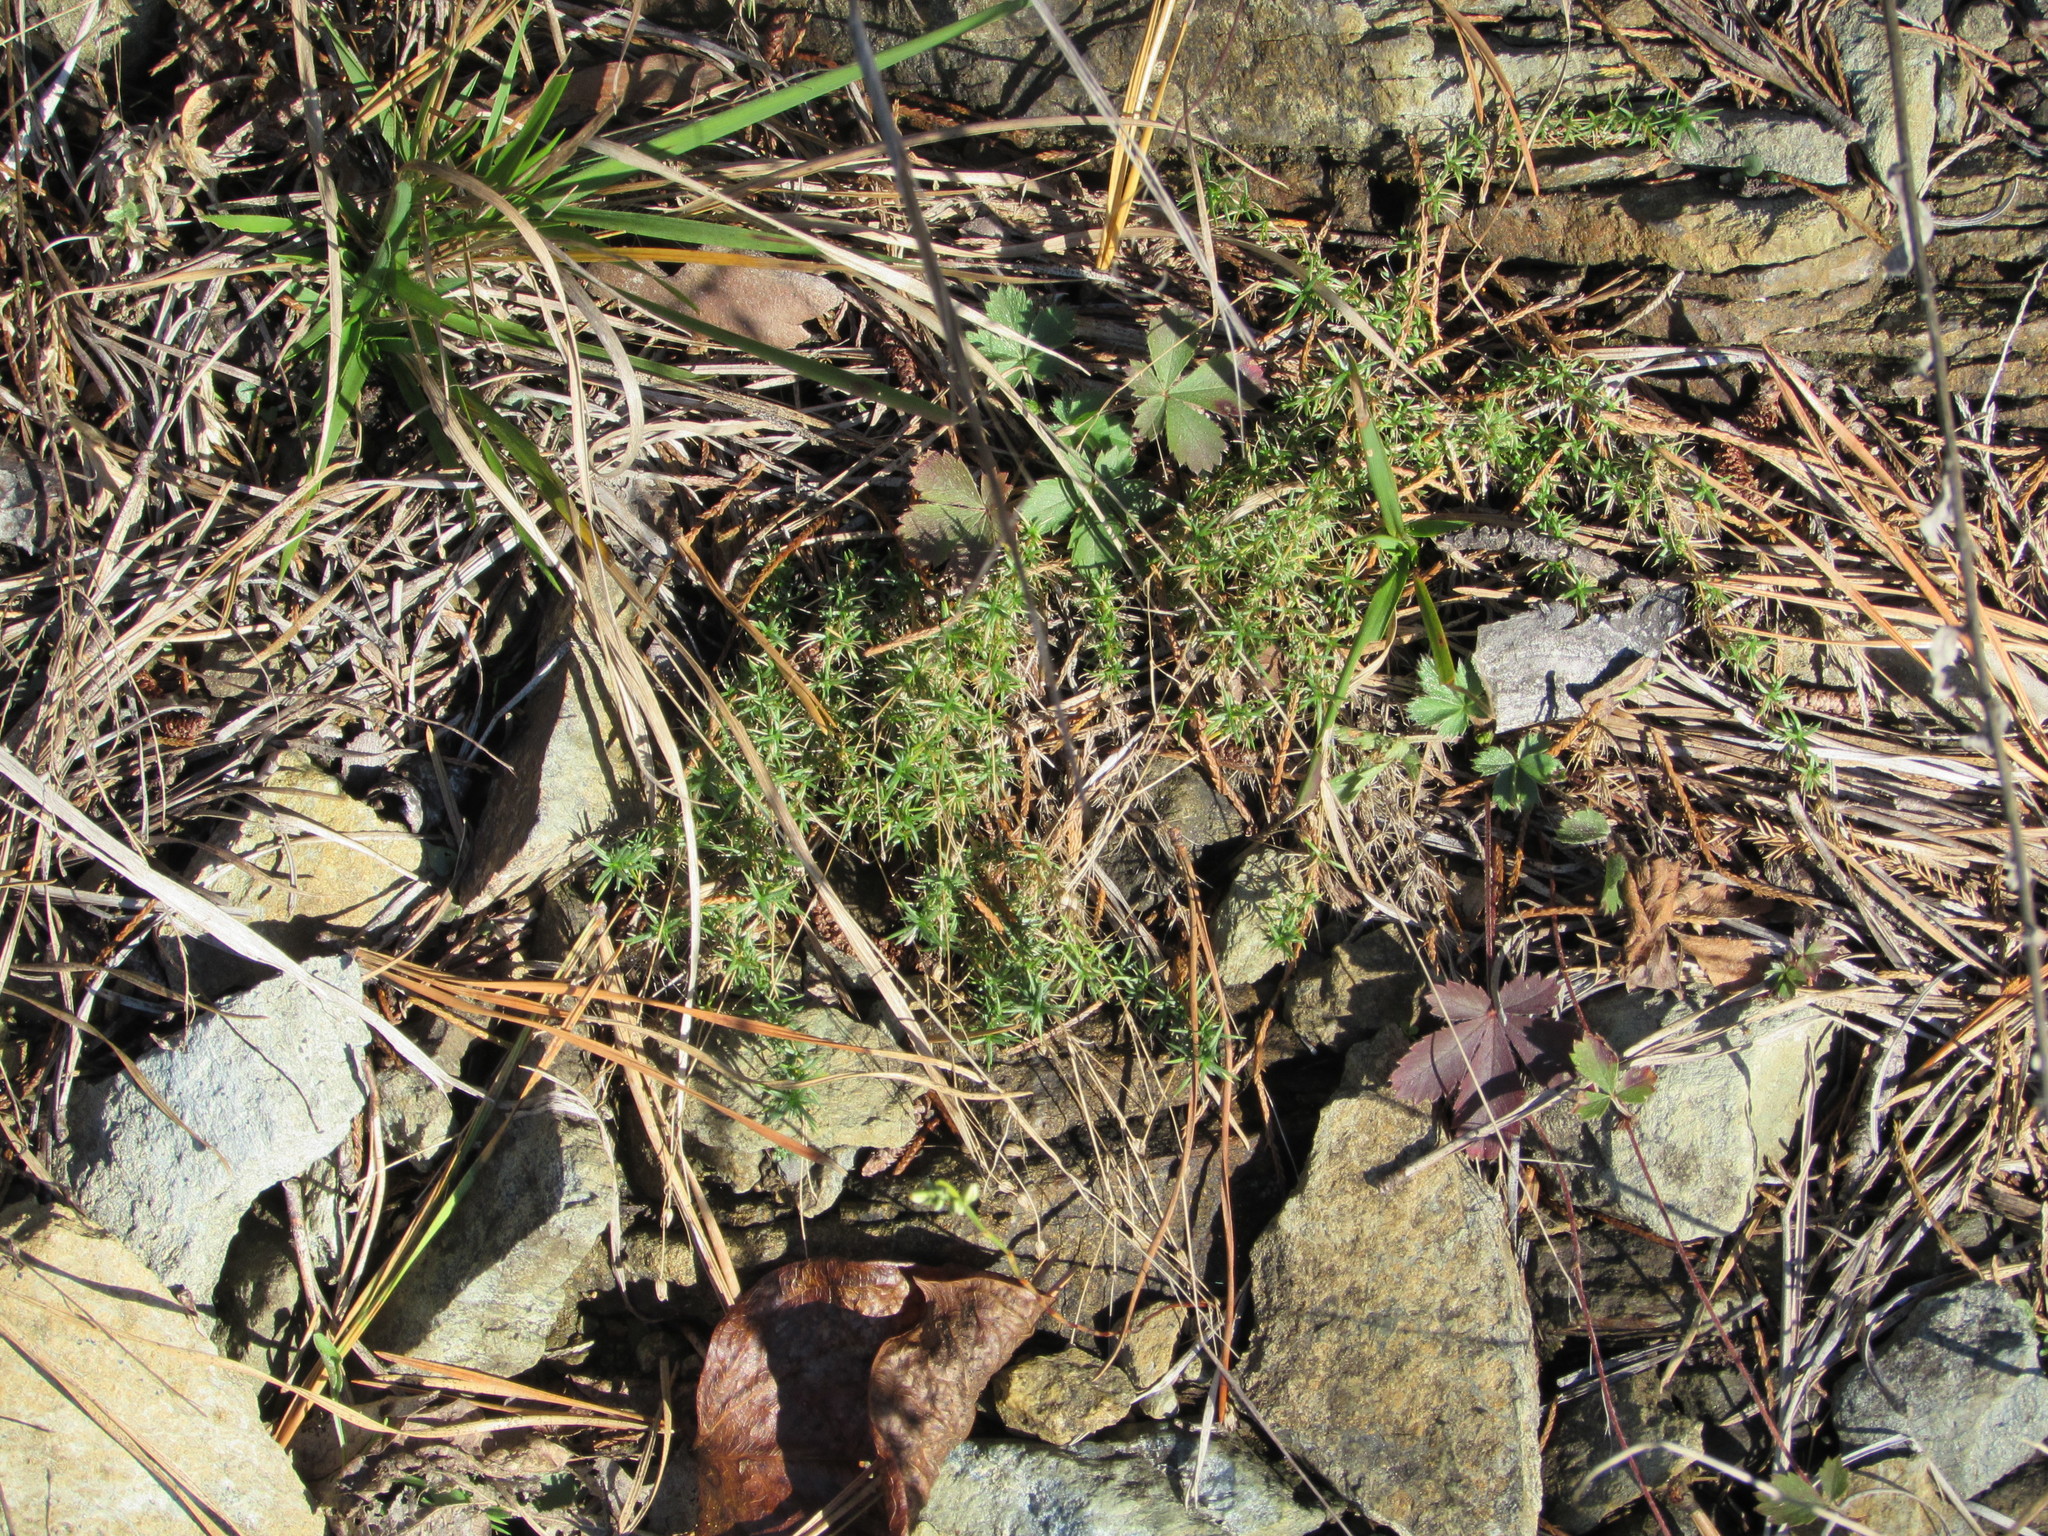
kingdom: Plantae
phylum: Tracheophyta
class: Magnoliopsida
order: Caryophyllales
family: Caryophyllaceae
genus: Sabulina
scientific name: Sabulina michauxii
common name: Michaux's stitchwort
